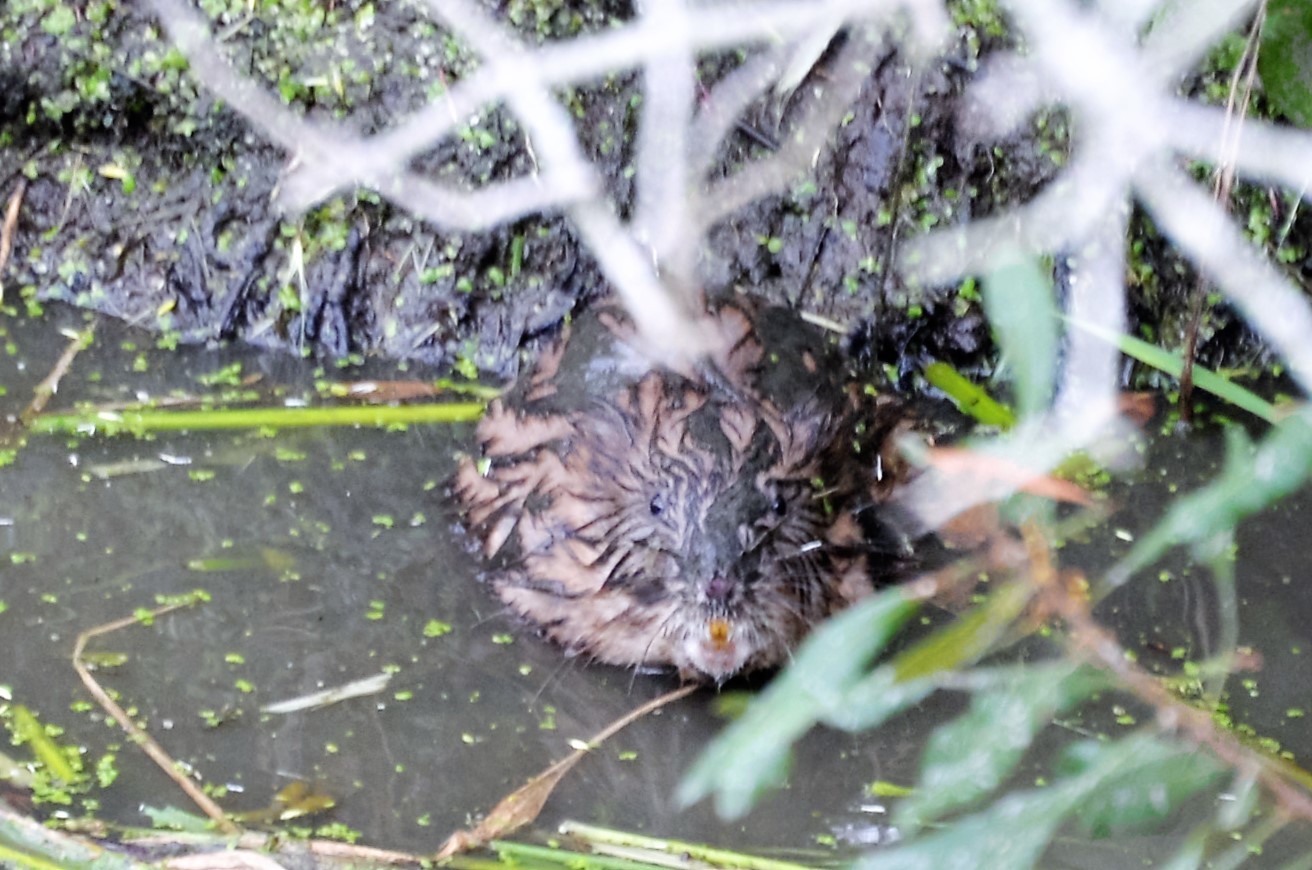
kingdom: Animalia
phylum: Chordata
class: Mammalia
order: Rodentia
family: Cricetidae
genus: Ondatra
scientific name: Ondatra zibethicus
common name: Muskrat
